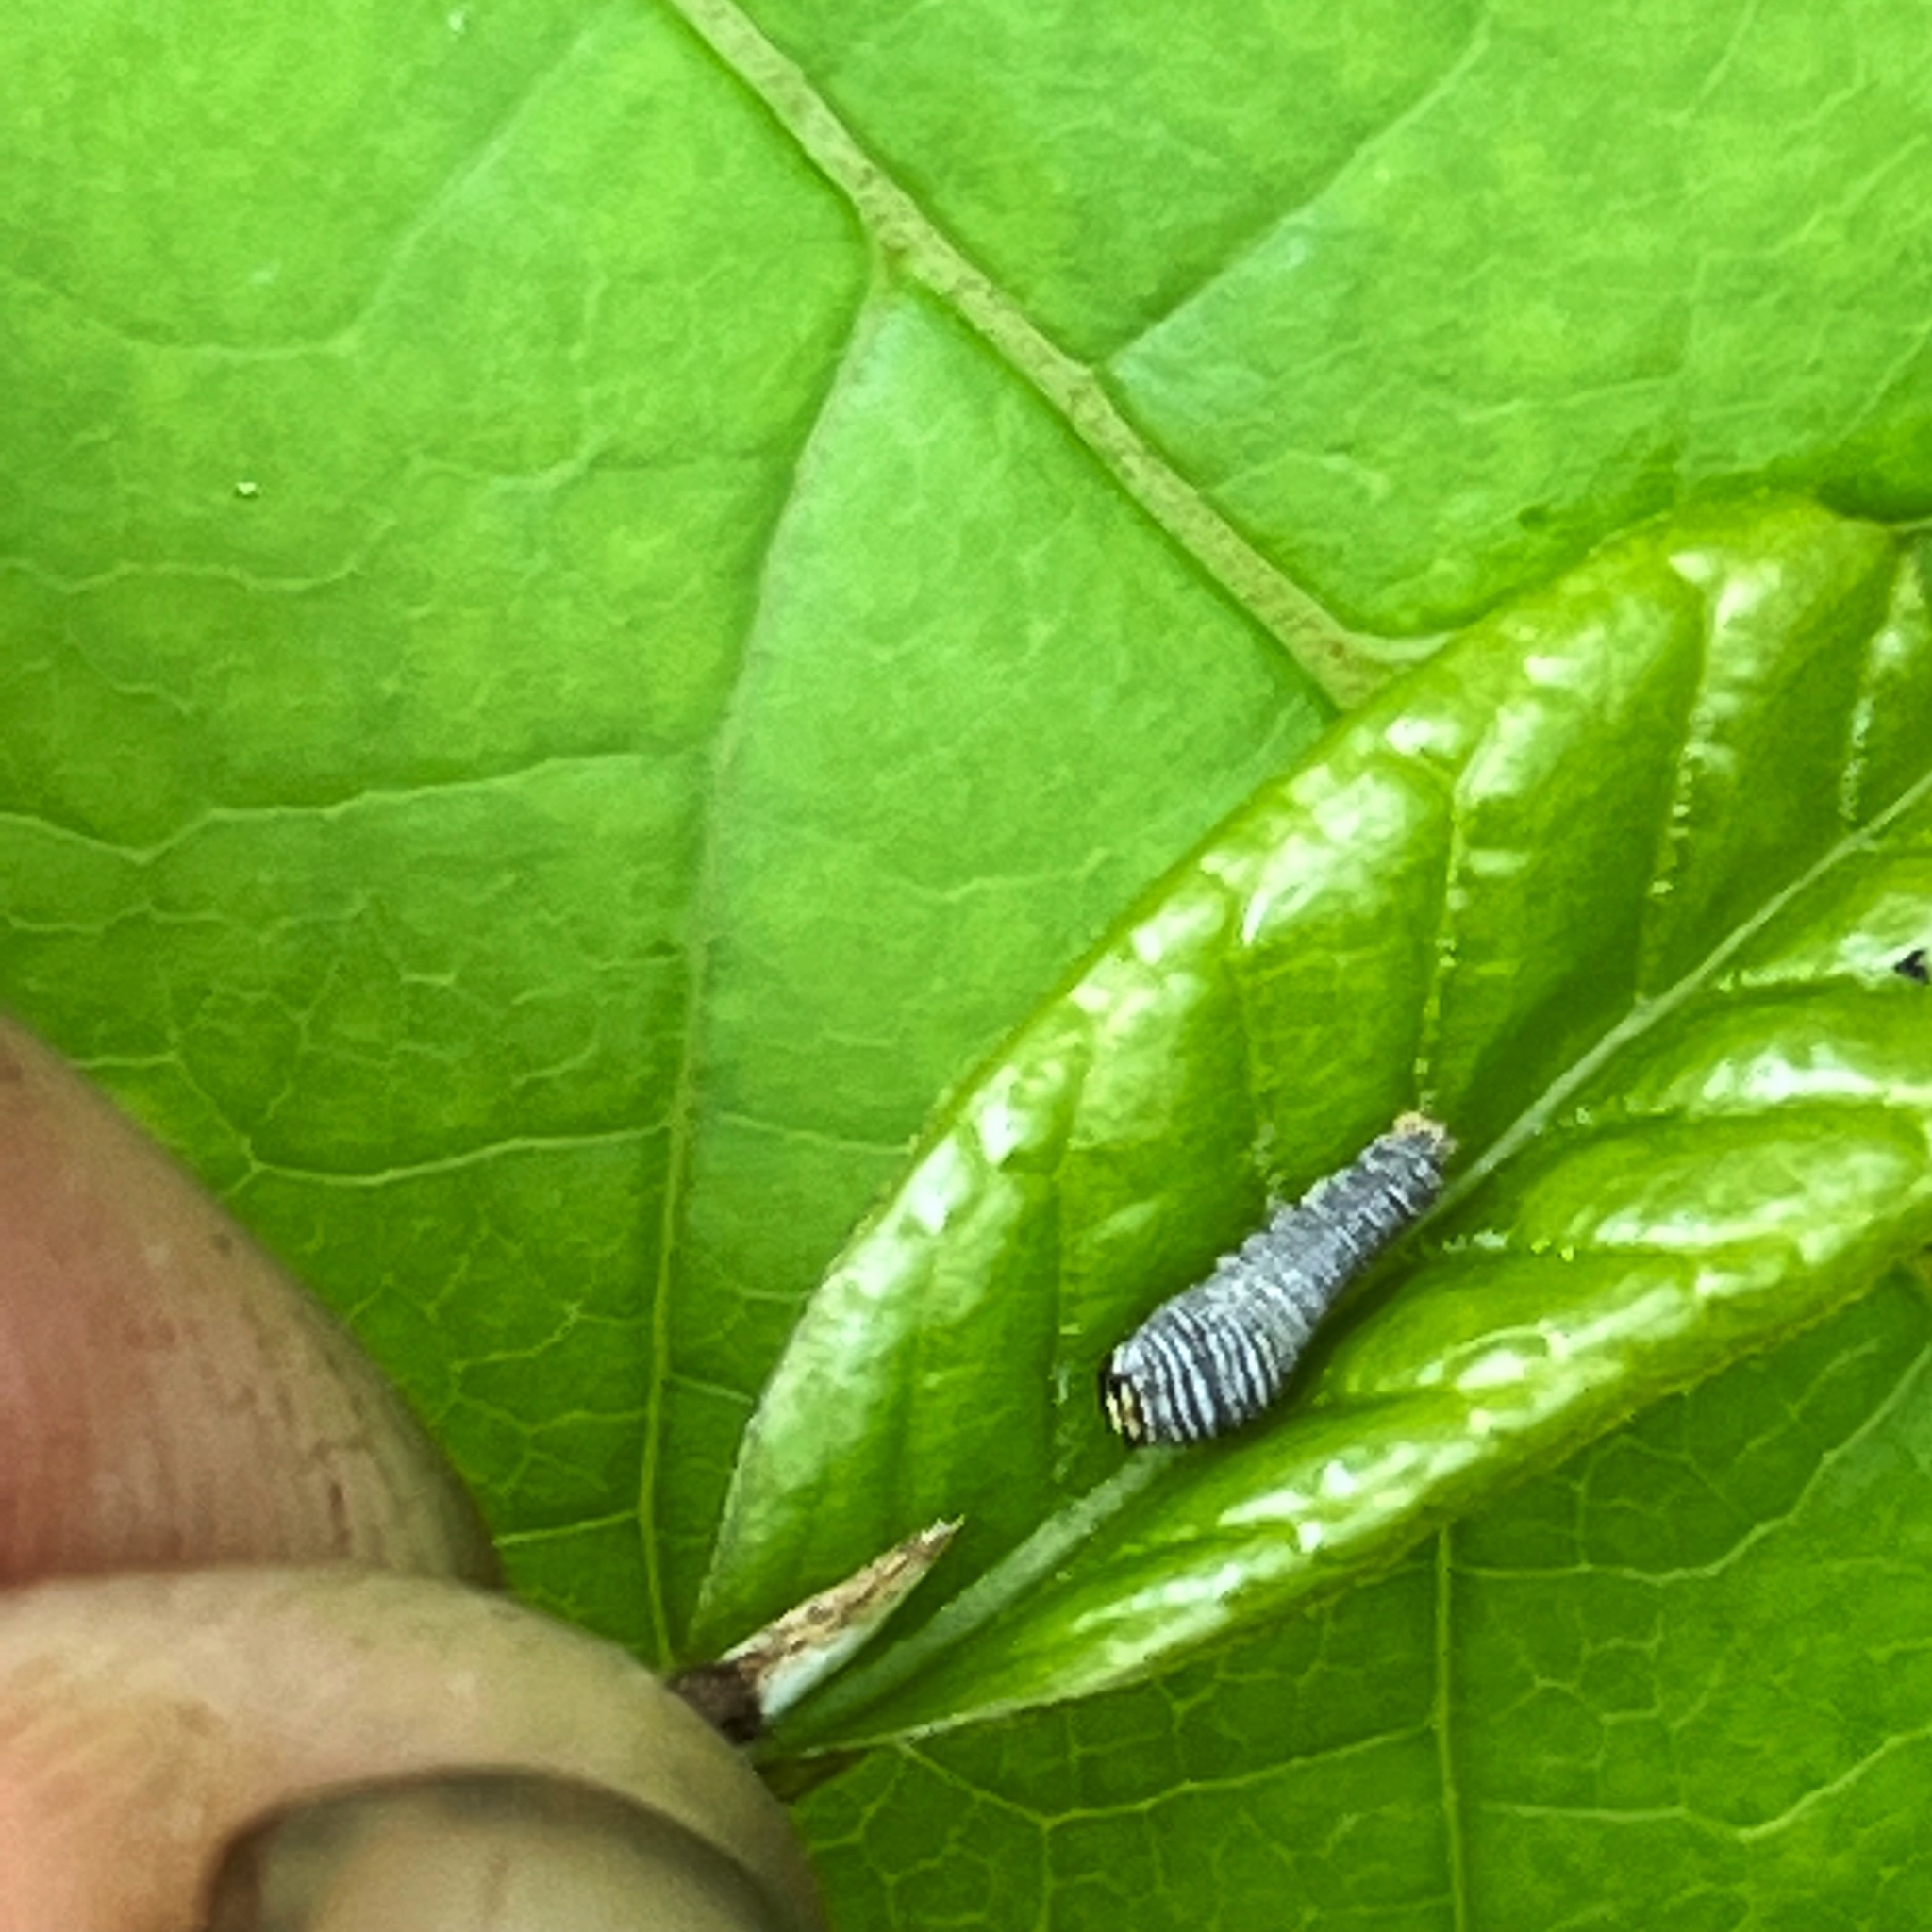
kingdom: Animalia
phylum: Arthropoda
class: Insecta
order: Lepidoptera
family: Papilionidae
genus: Protographium
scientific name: Protographium marcellus
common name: Zebra swallowtail
